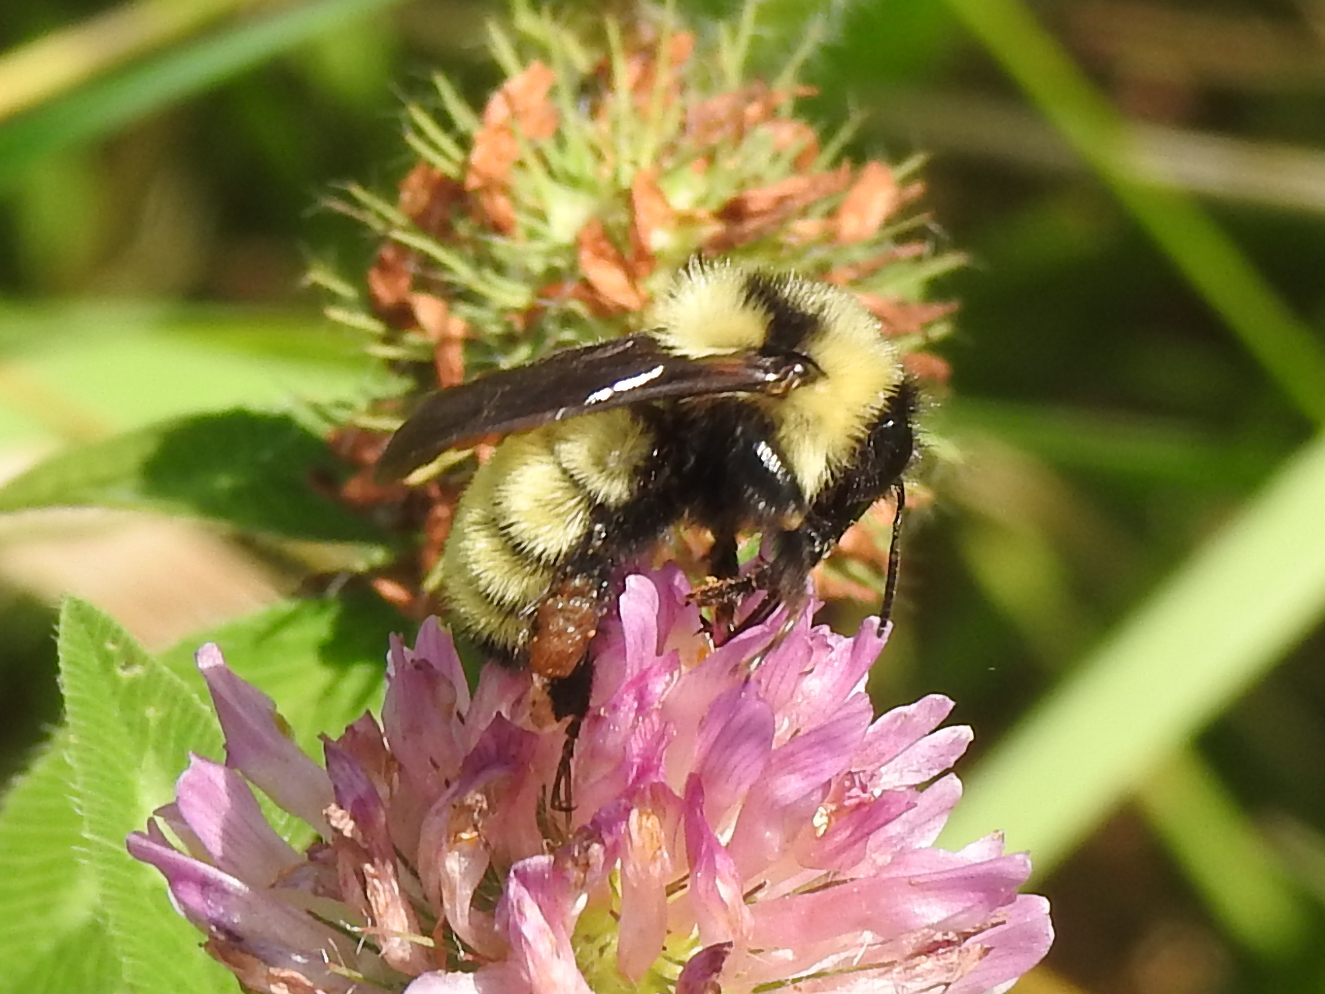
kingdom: Animalia
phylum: Arthropoda
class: Insecta
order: Hymenoptera
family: Apidae
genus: Bombus
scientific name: Bombus fervidus
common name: Yellow bumble bee
